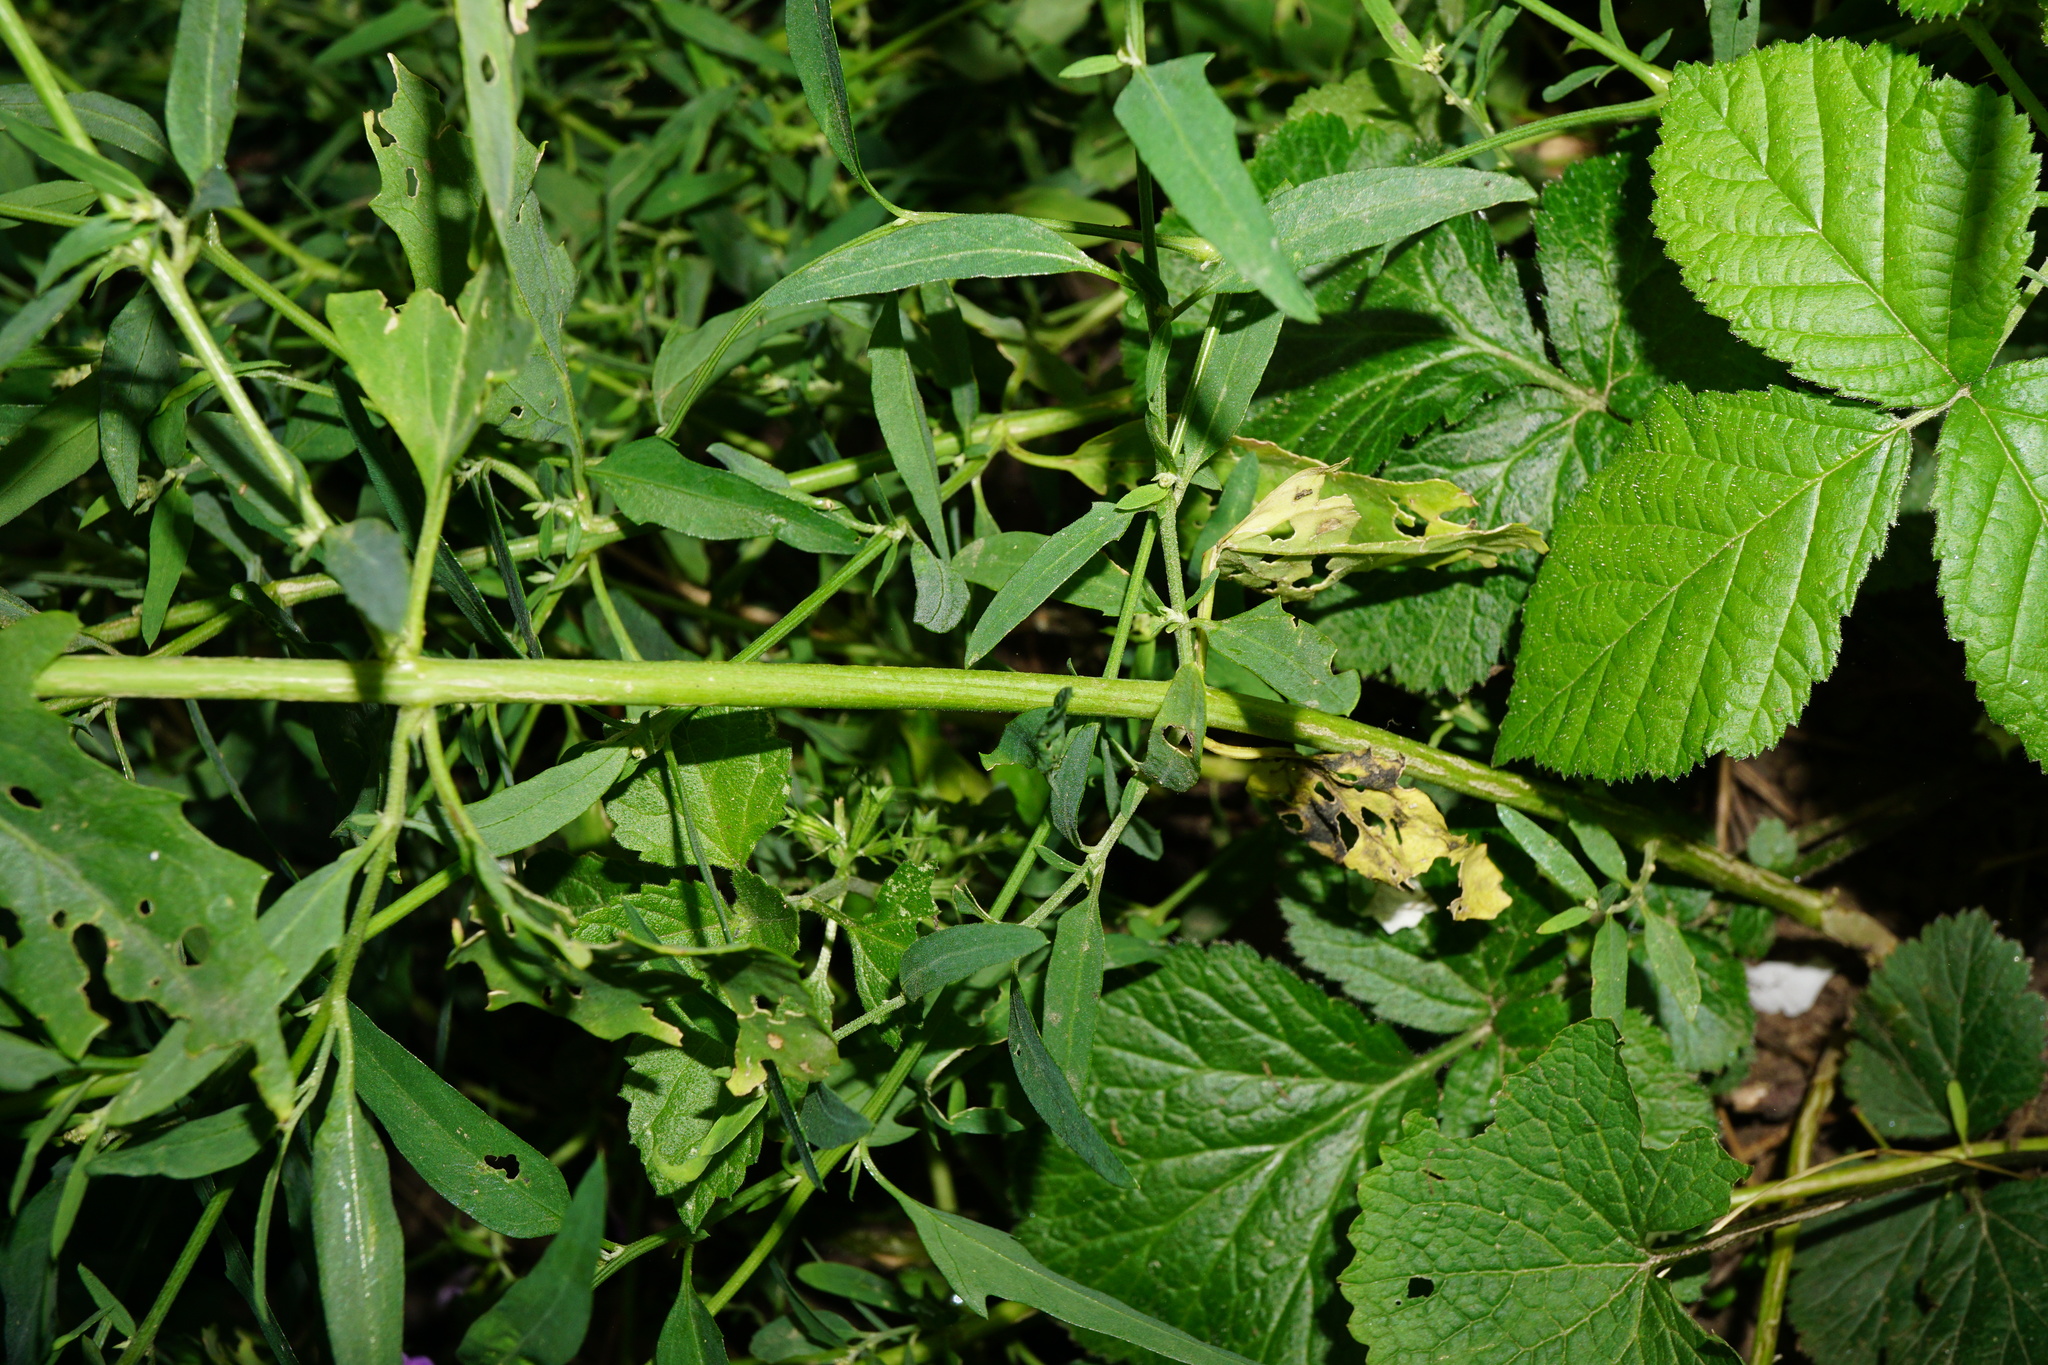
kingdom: Plantae
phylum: Tracheophyta
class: Magnoliopsida
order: Caryophyllales
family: Amaranthaceae
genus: Atriplex
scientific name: Atriplex patula
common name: Common orache
